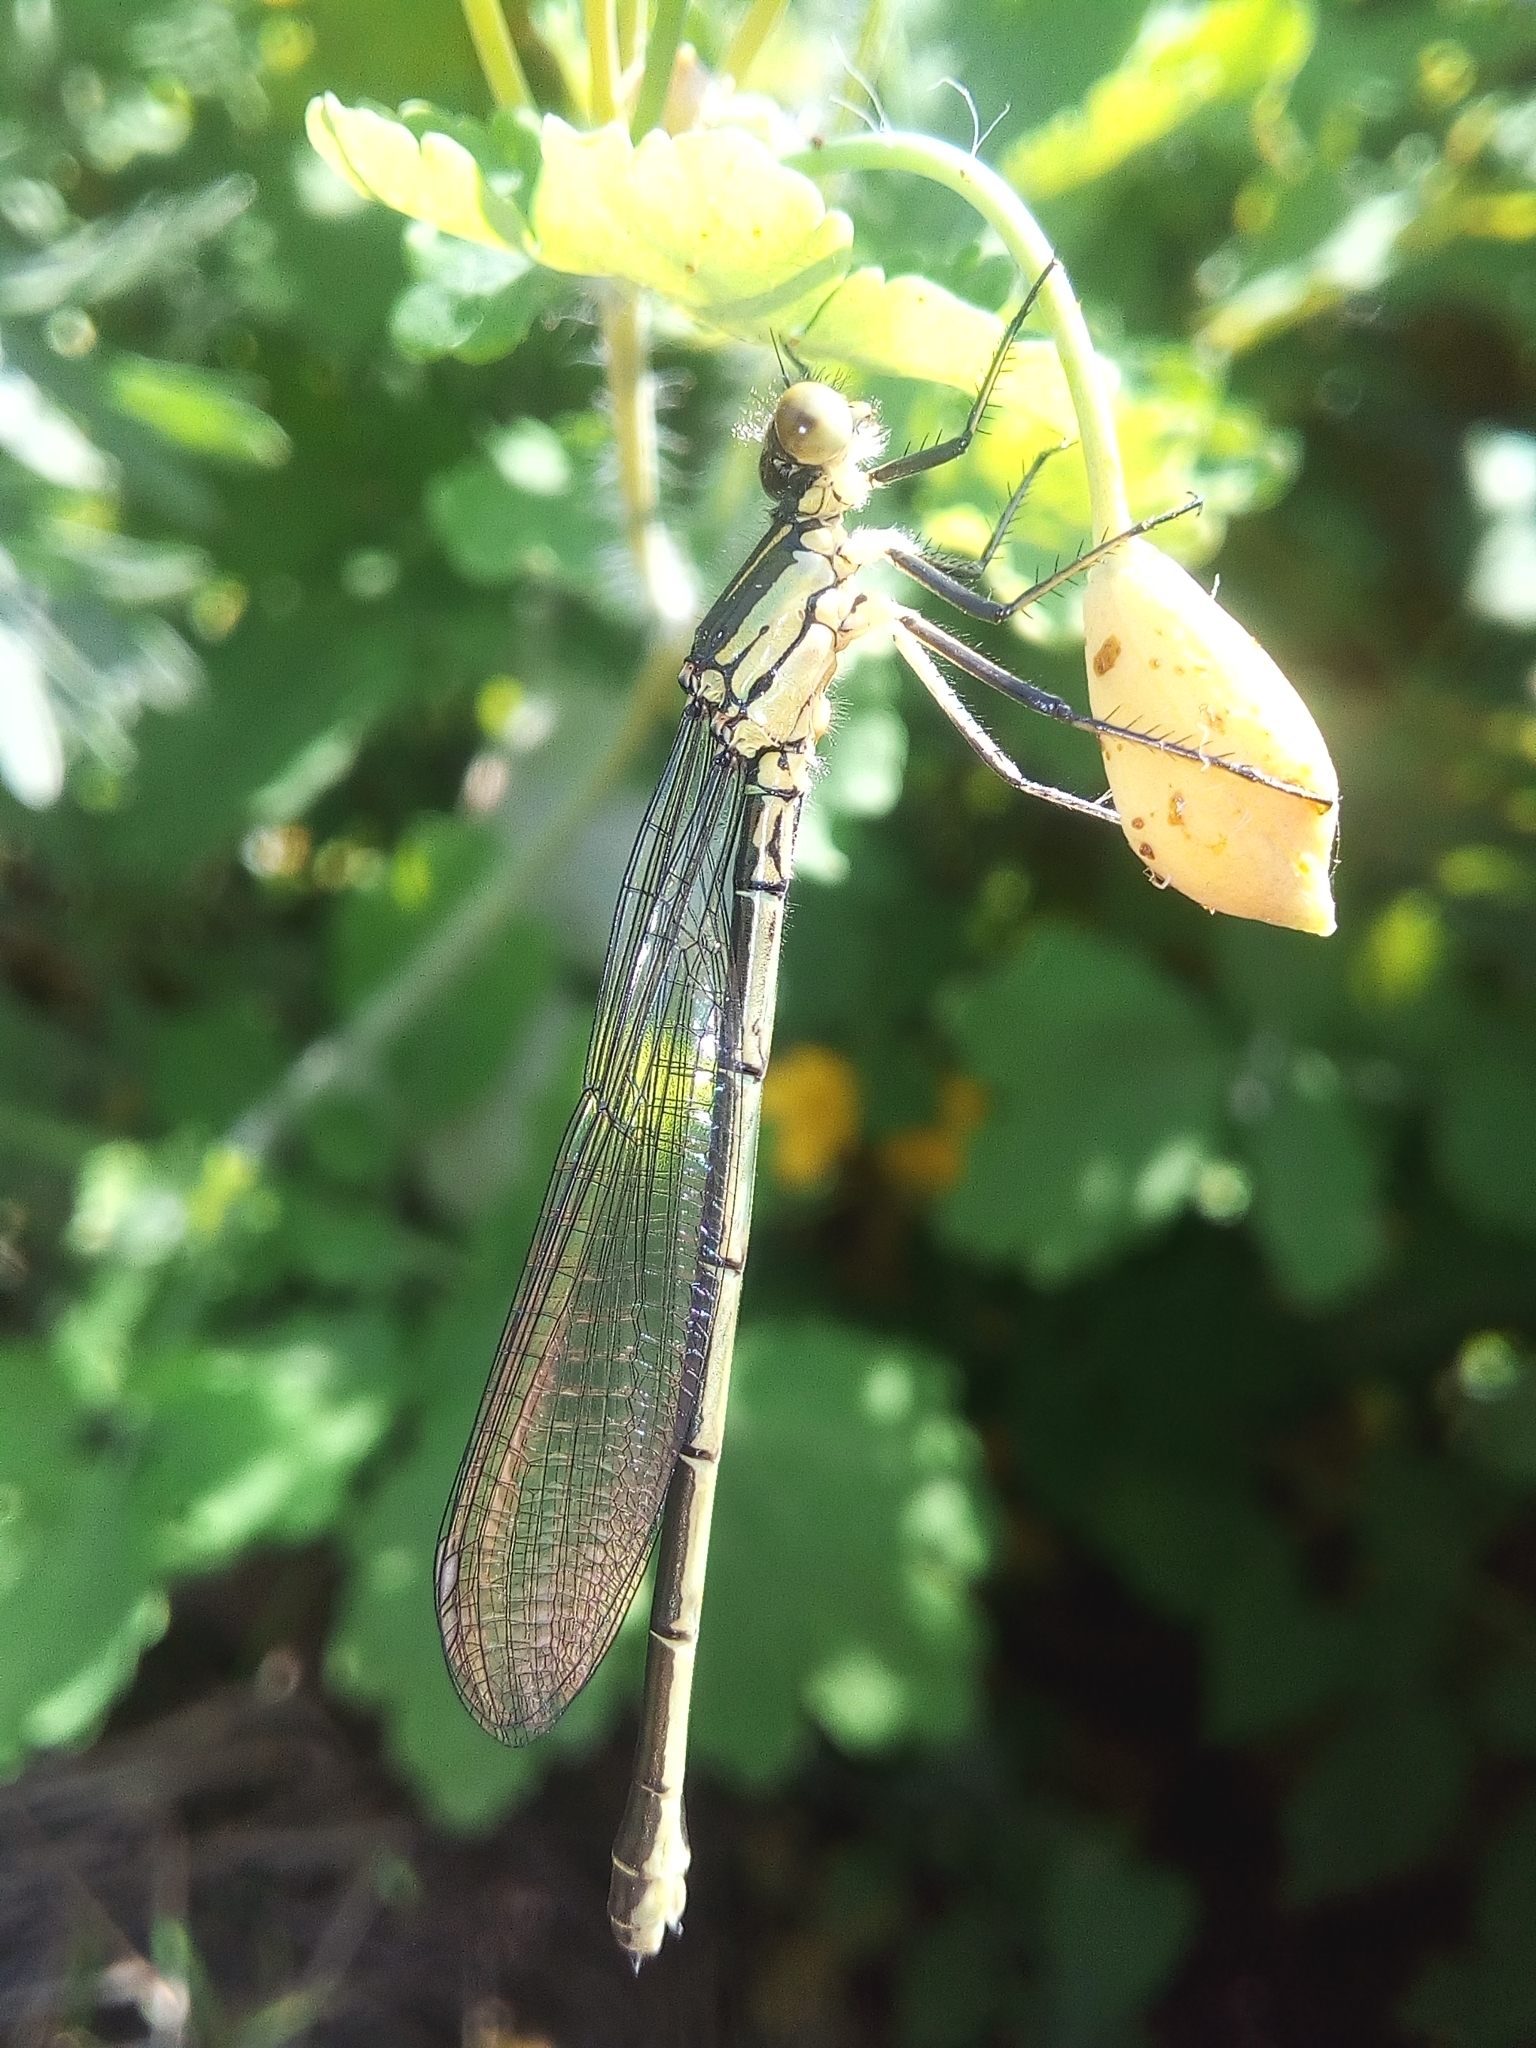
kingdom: Animalia
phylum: Arthropoda
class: Insecta
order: Odonata
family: Coenagrionidae
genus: Erythromma
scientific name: Erythromma najas
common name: Red-eyed damselfly
